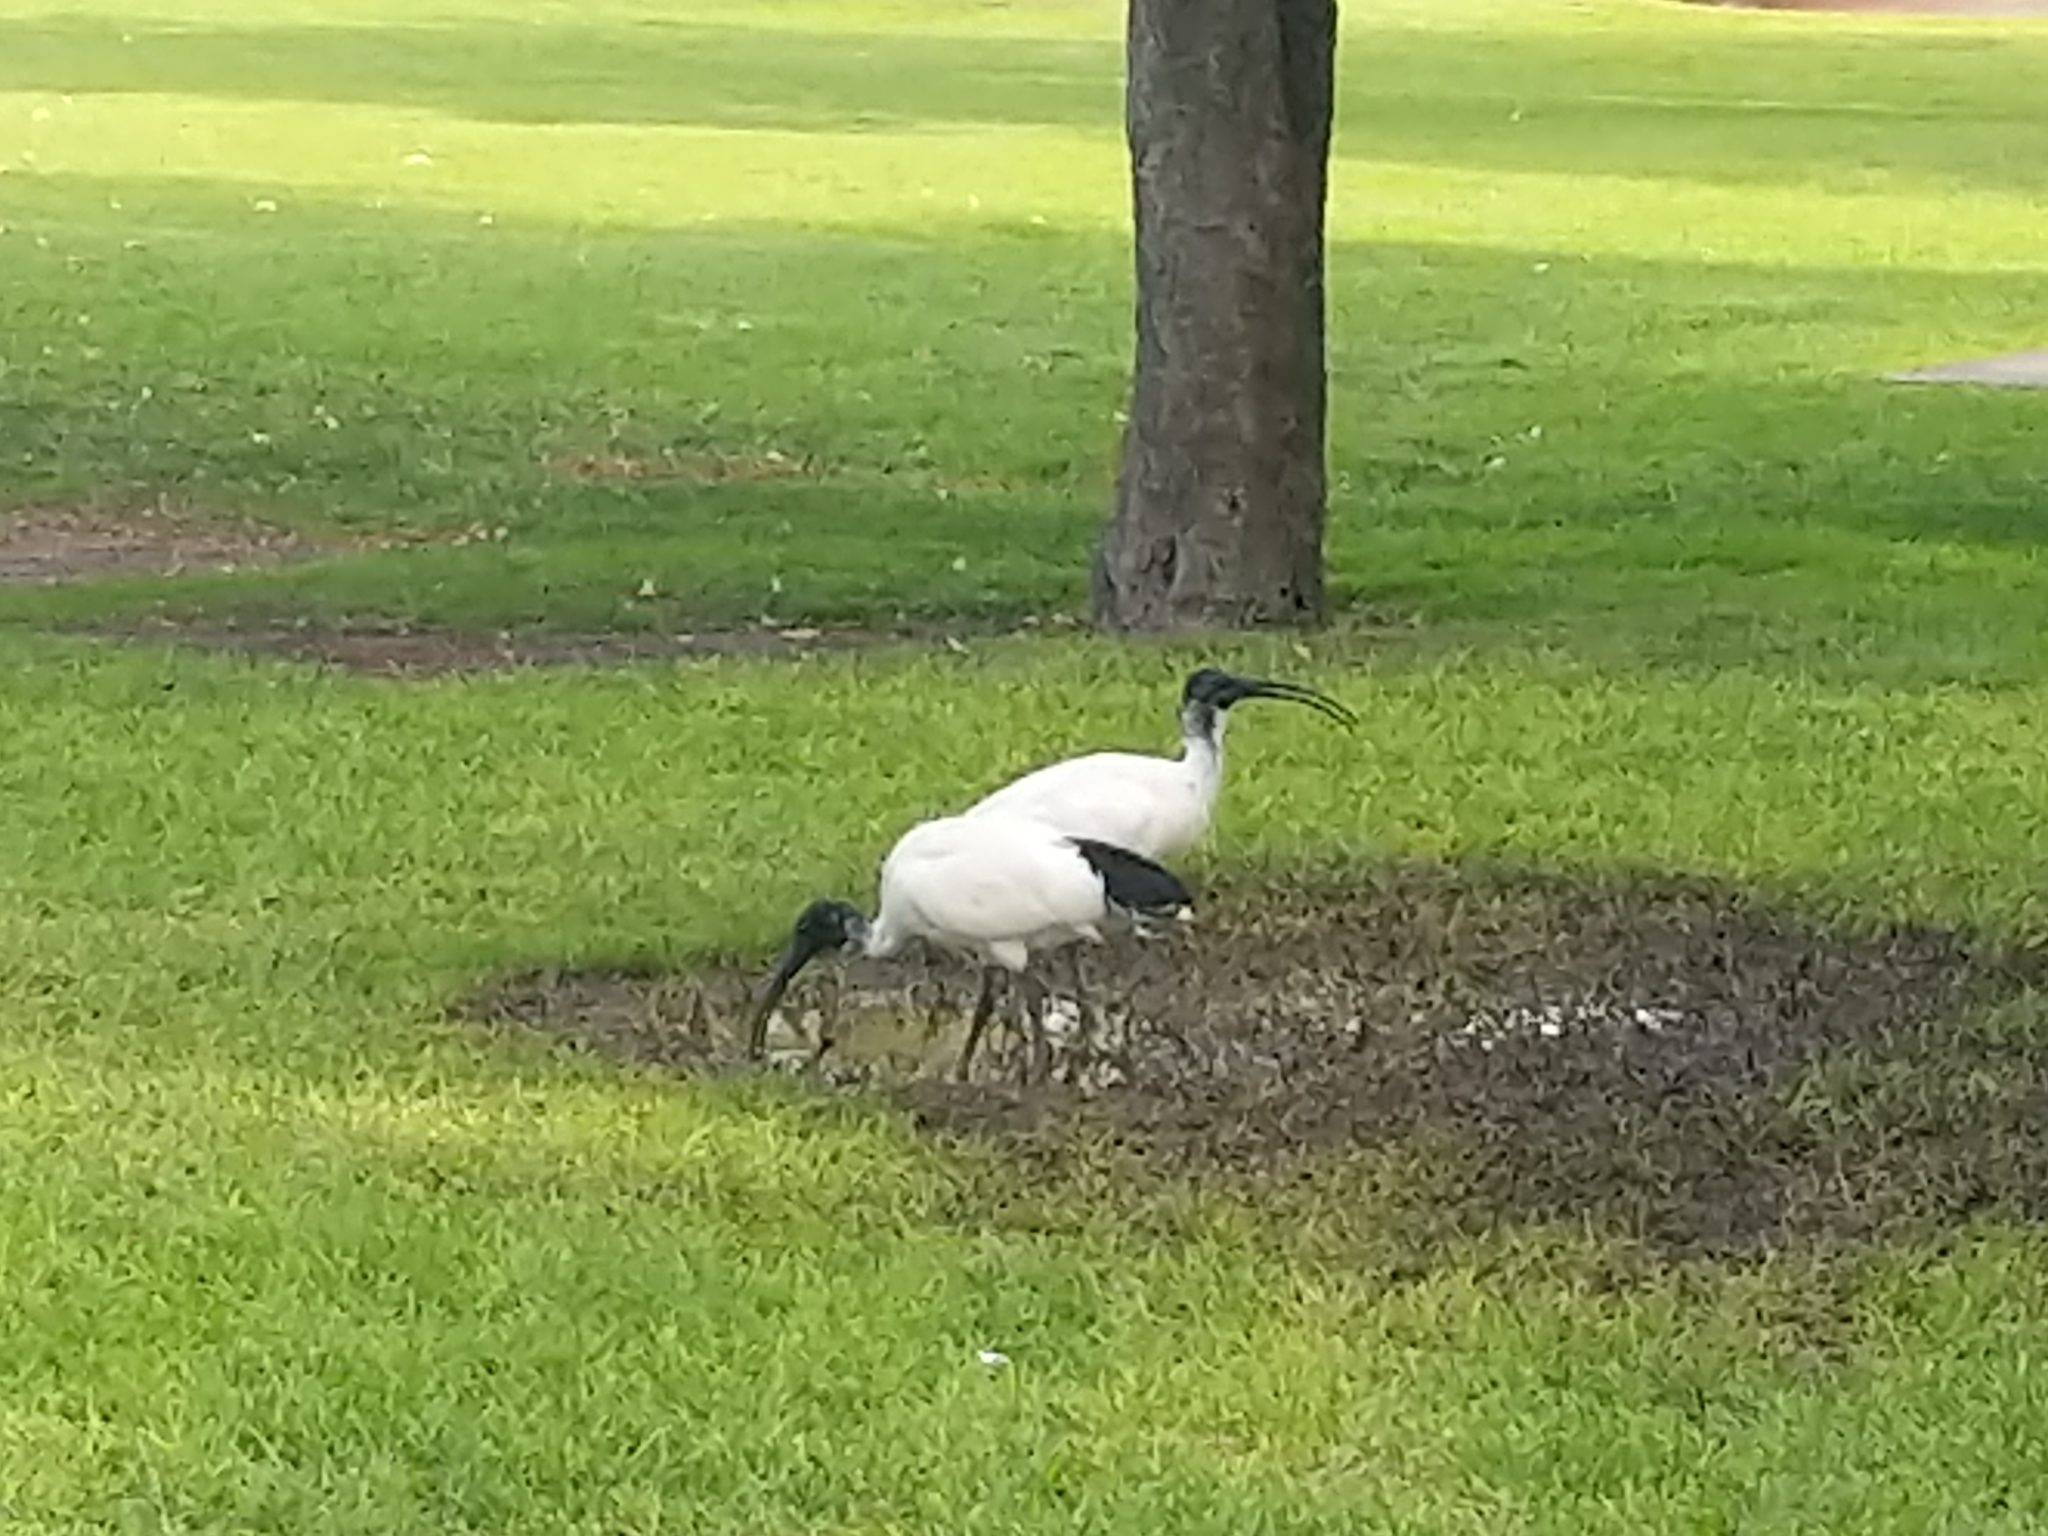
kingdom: Animalia
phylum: Chordata
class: Aves
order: Pelecaniformes
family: Threskiornithidae
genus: Threskiornis
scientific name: Threskiornis molucca
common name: Australian white ibis
